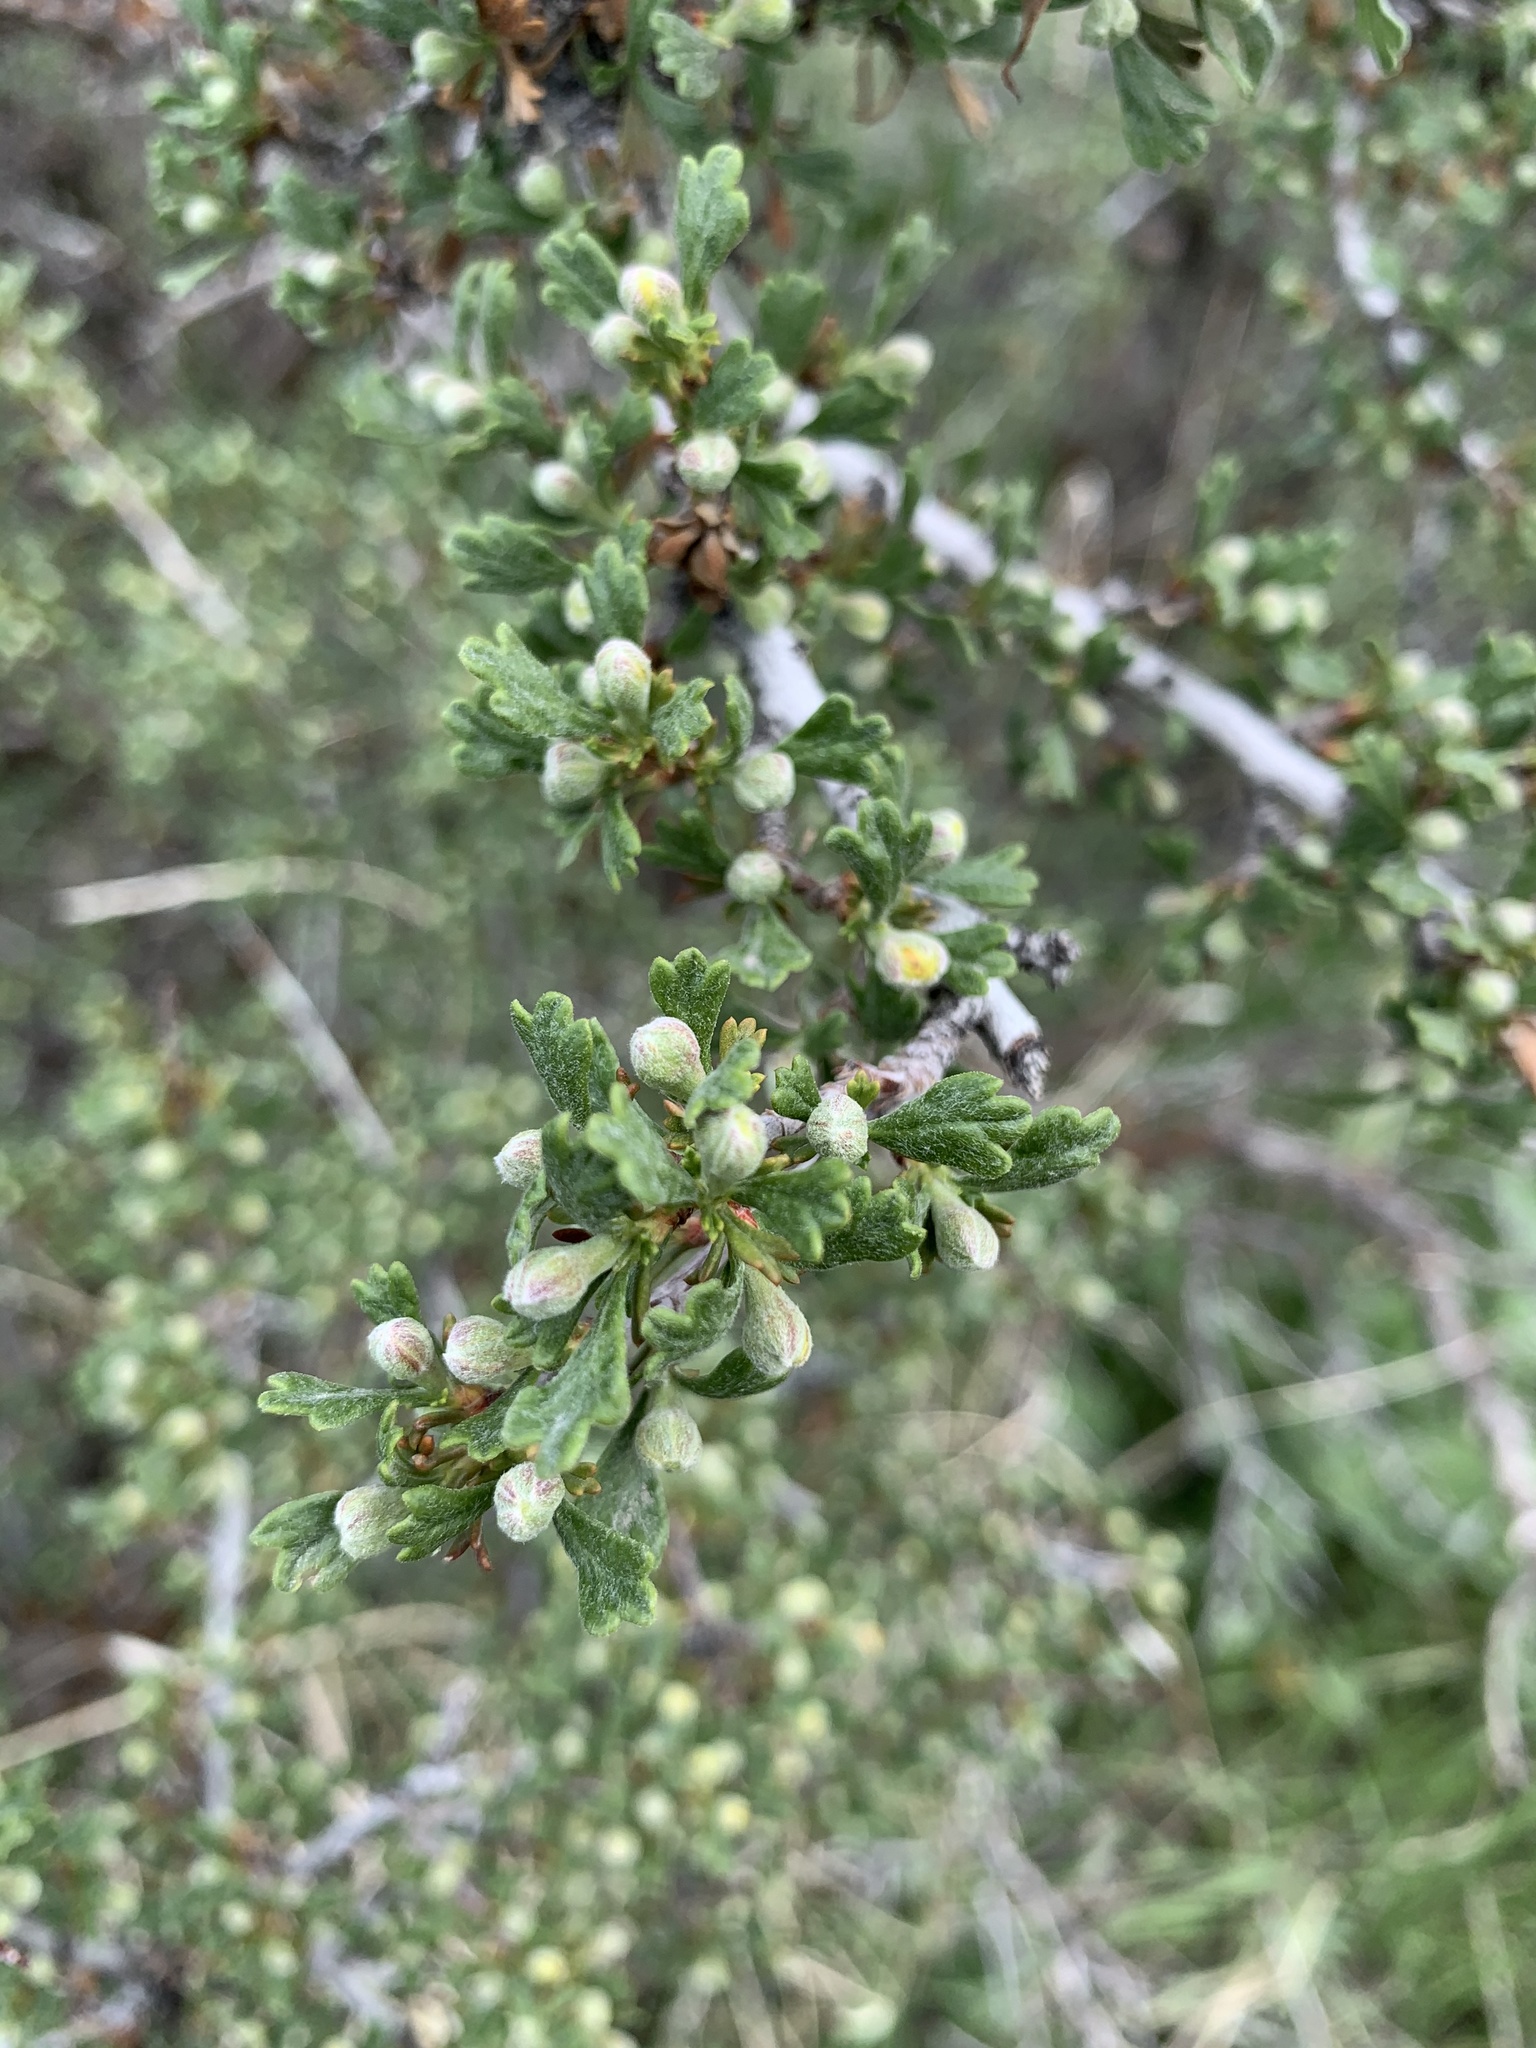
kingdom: Plantae
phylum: Tracheophyta
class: Magnoliopsida
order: Rosales
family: Rosaceae
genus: Purshia
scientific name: Purshia tridentata
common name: Antelope bitterbrush
